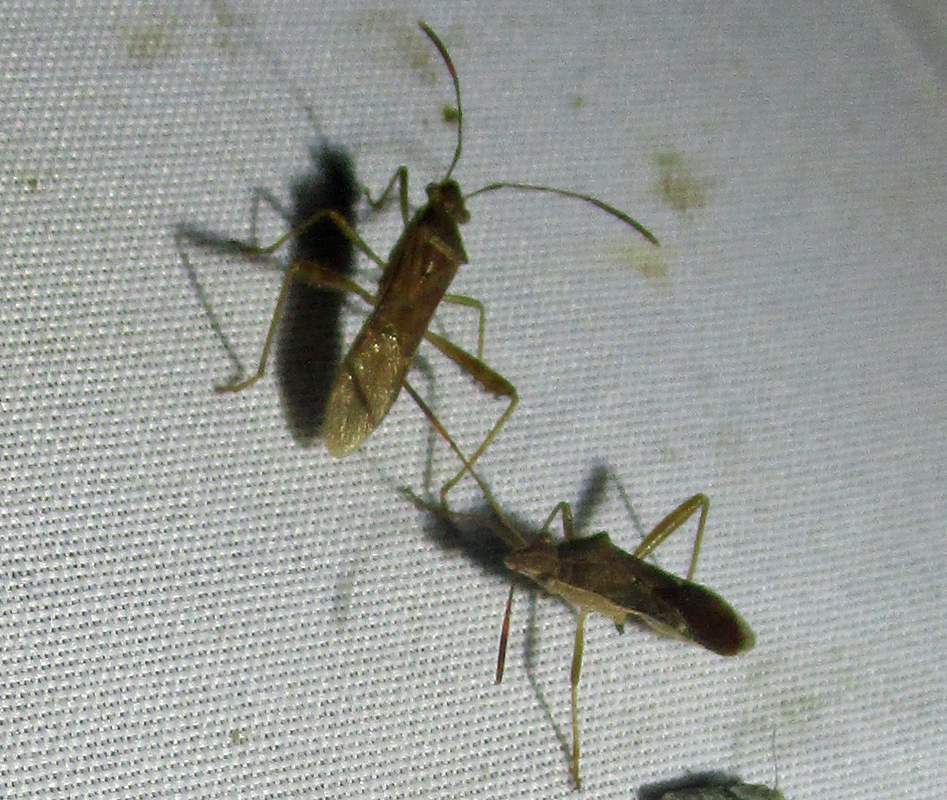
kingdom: Animalia
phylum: Arthropoda
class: Insecta
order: Hemiptera
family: Alydidae
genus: Burtinus
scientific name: Burtinus notatipennis
